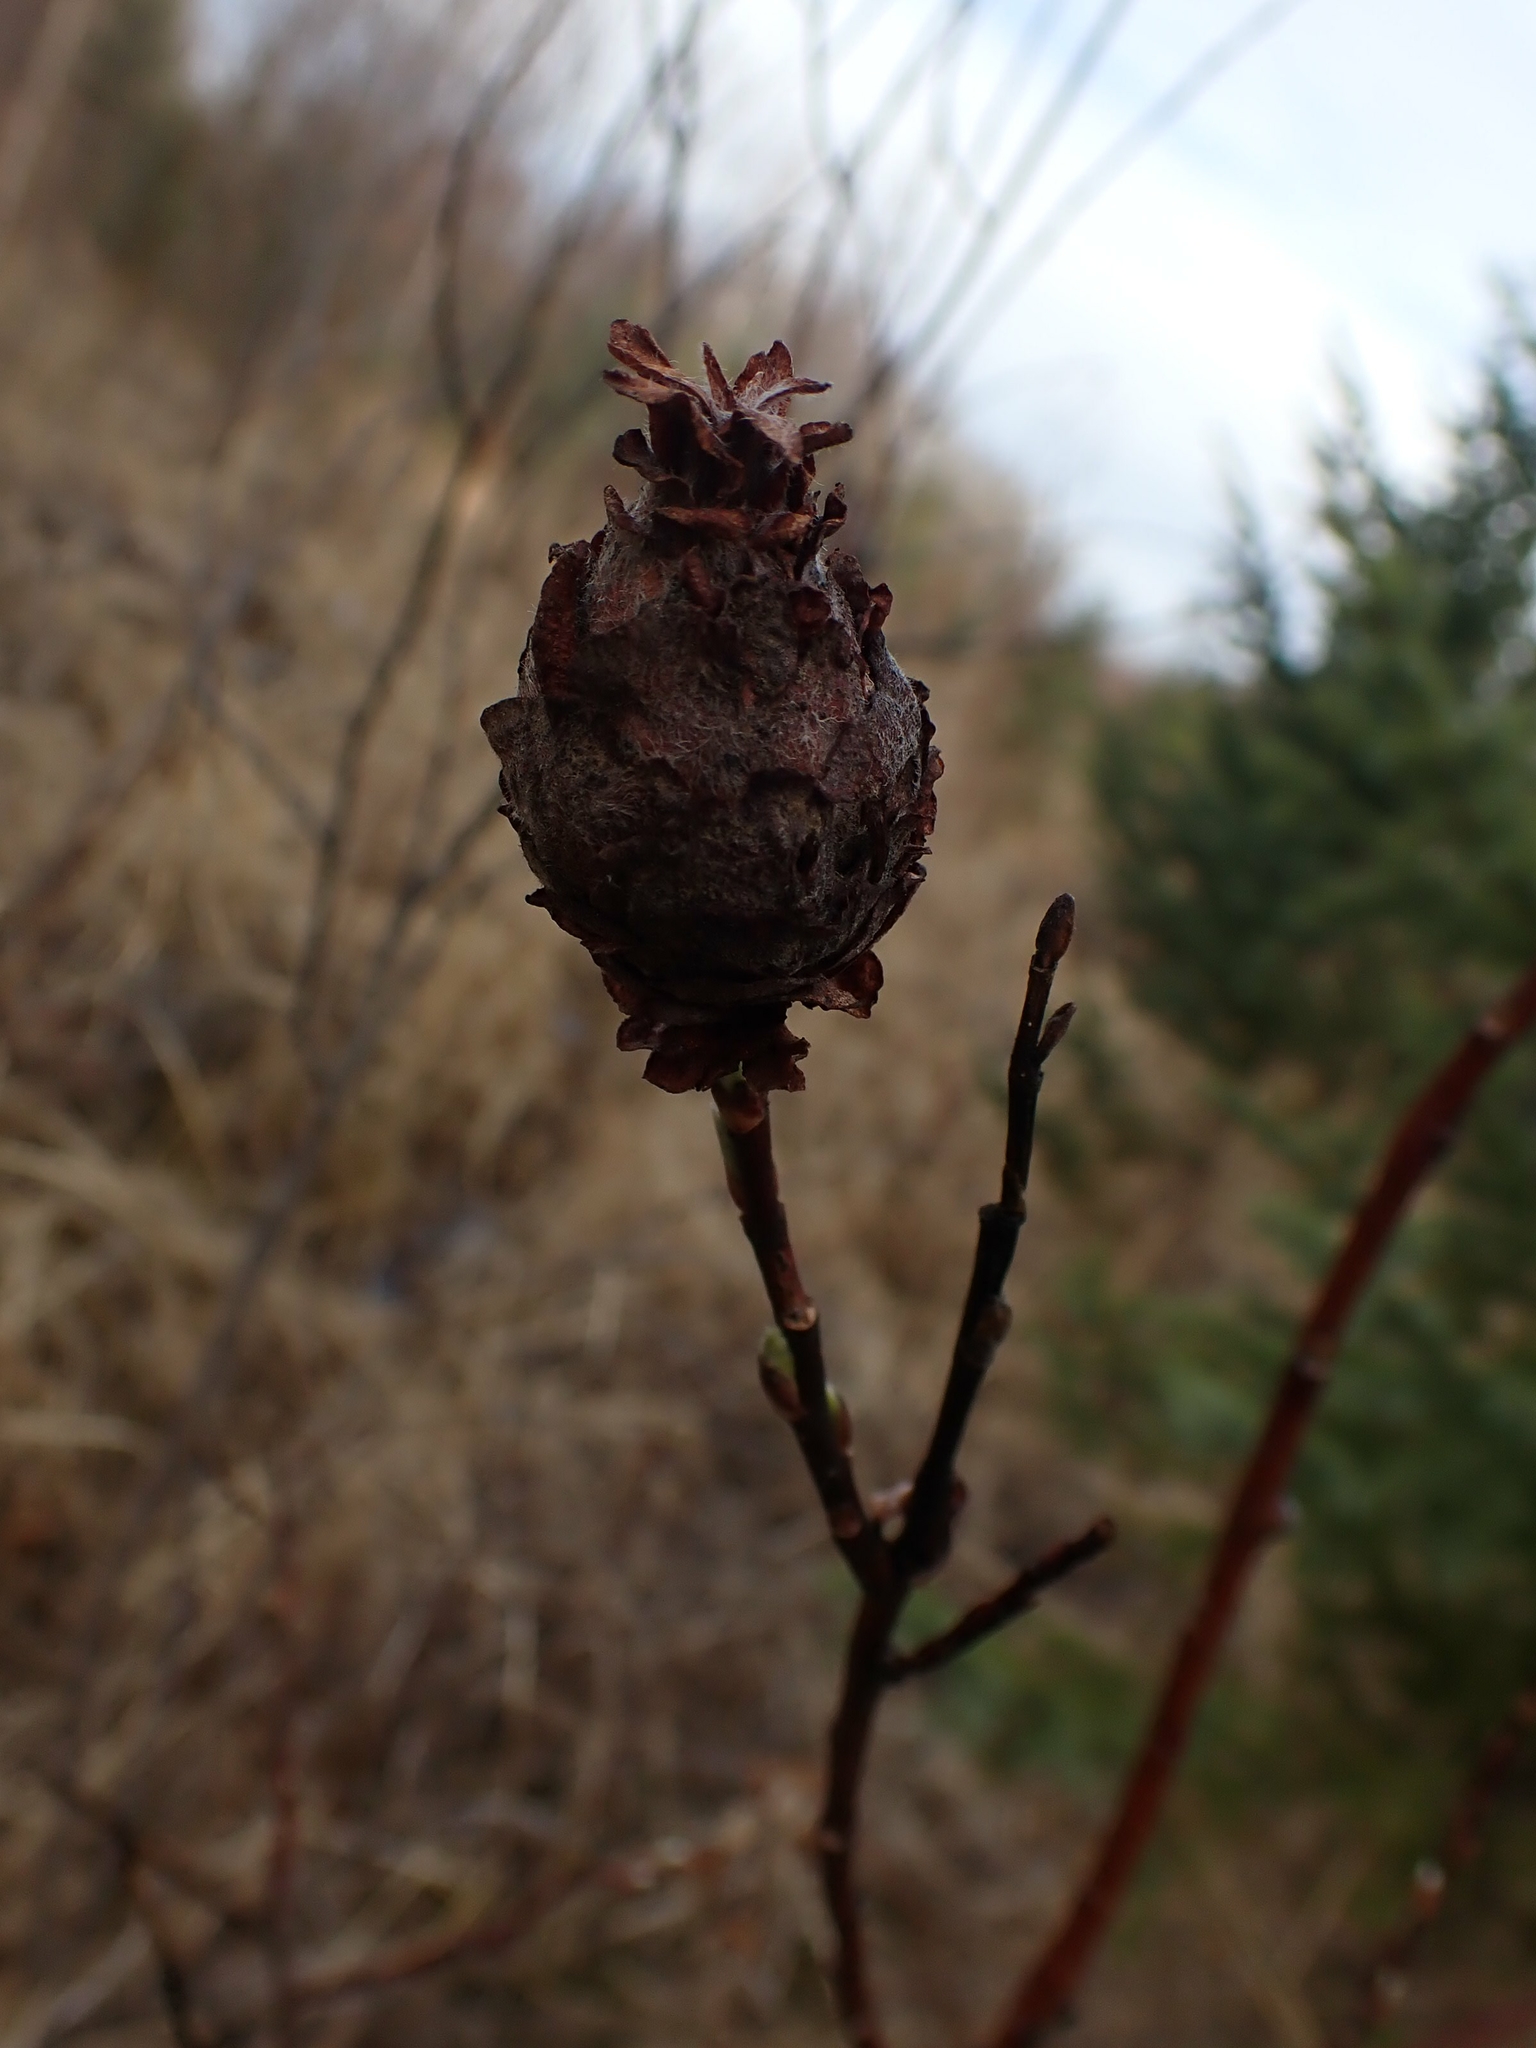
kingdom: Animalia
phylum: Arthropoda
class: Insecta
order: Diptera
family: Cecidomyiidae
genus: Rabdophaga
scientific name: Rabdophaga strobiloides
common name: Willow pinecone gall midge
